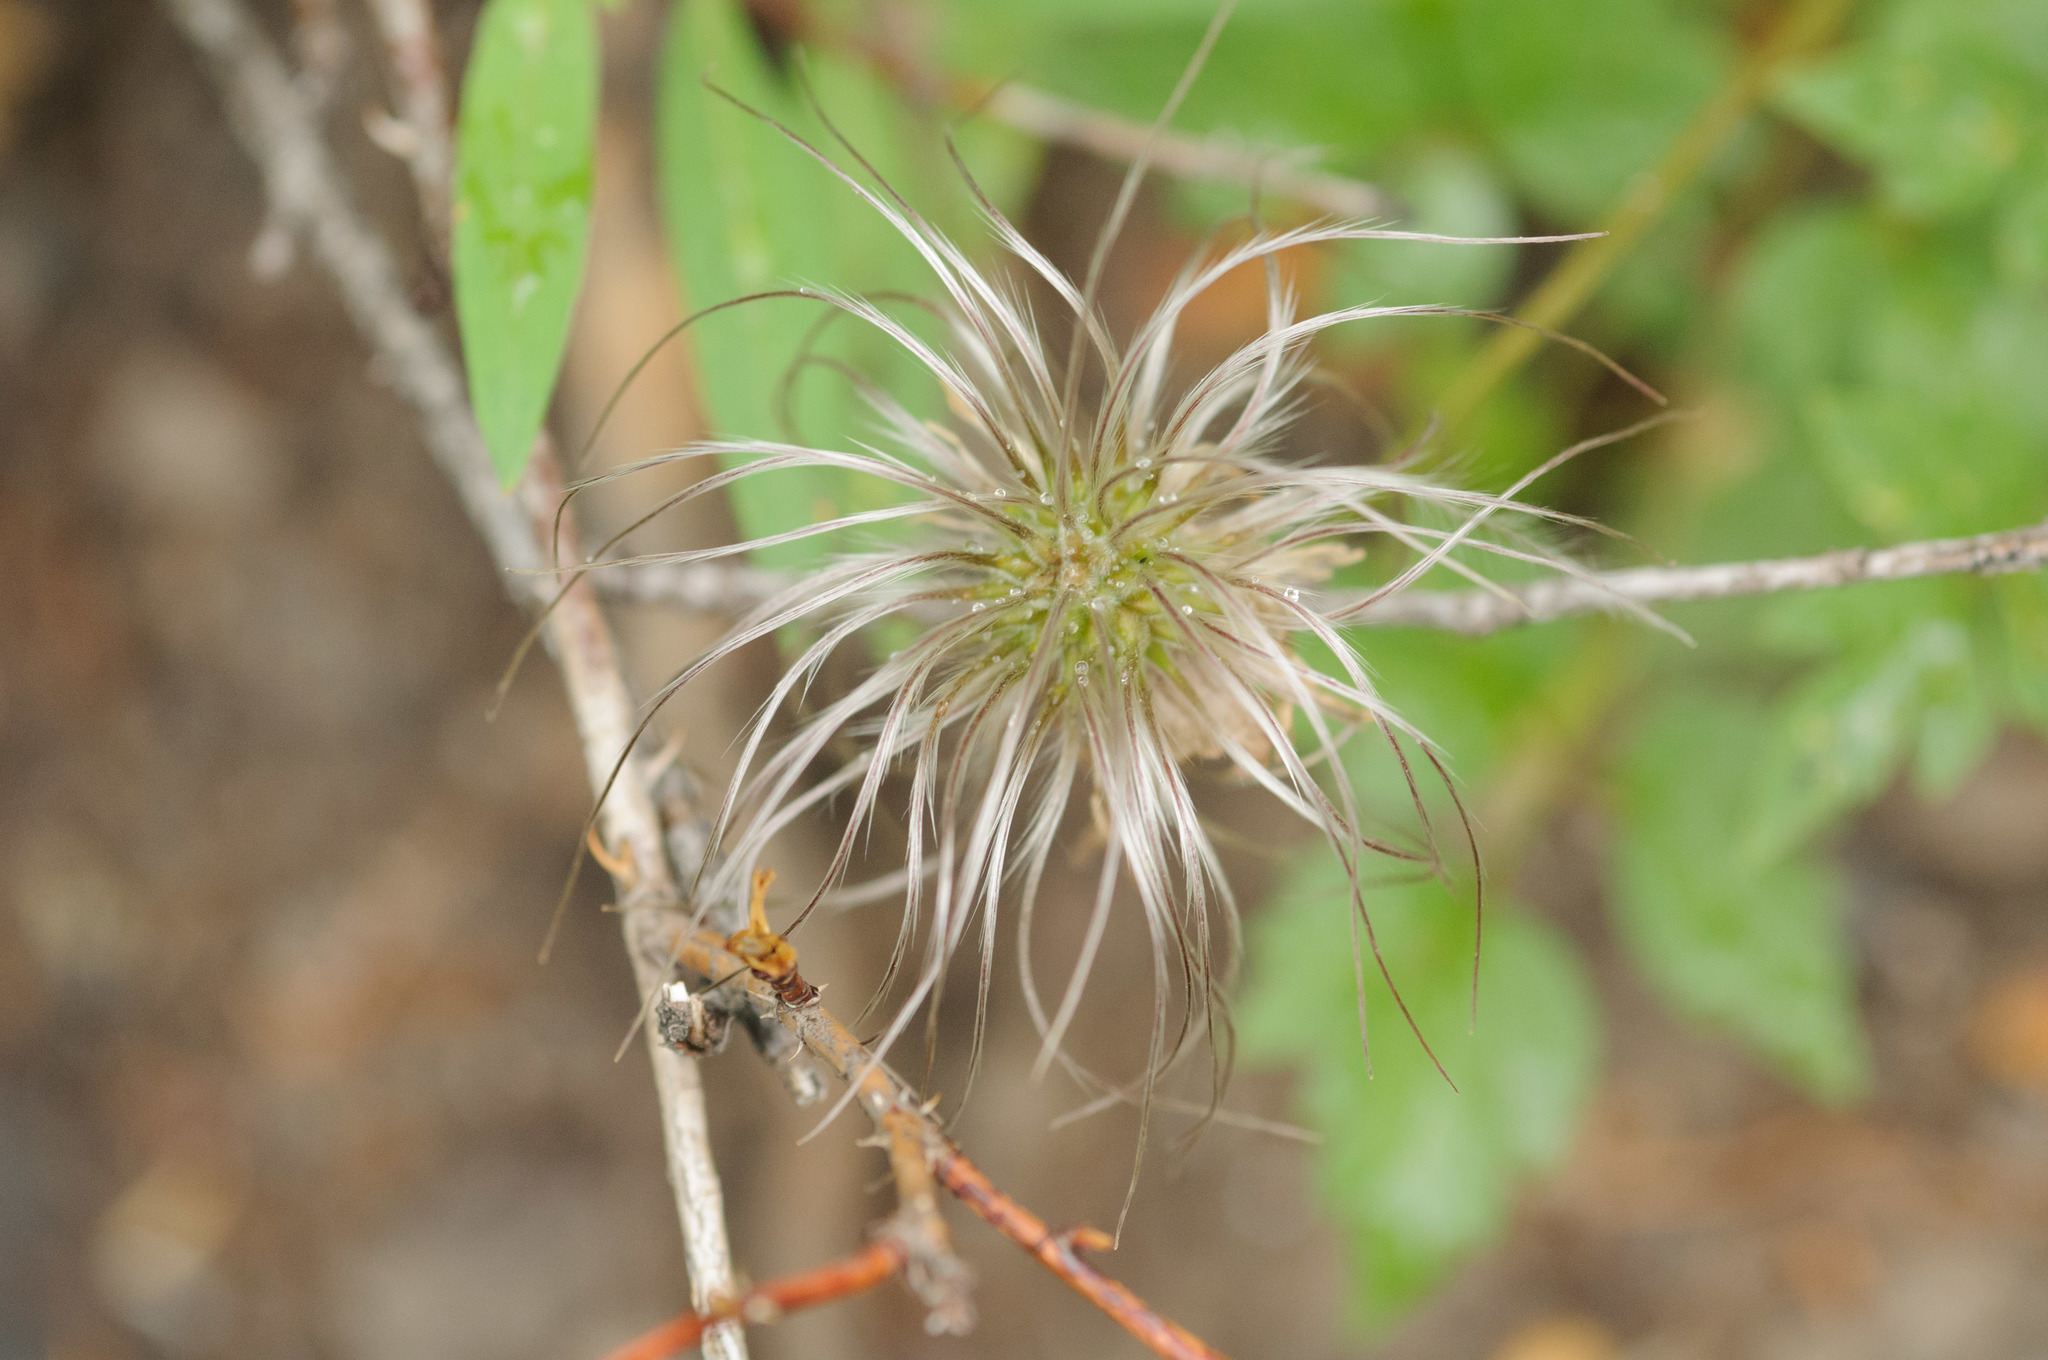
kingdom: Plantae
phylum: Tracheophyta
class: Magnoliopsida
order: Ranunculales
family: Ranunculaceae
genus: Clematis
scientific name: Clematis columbiana
